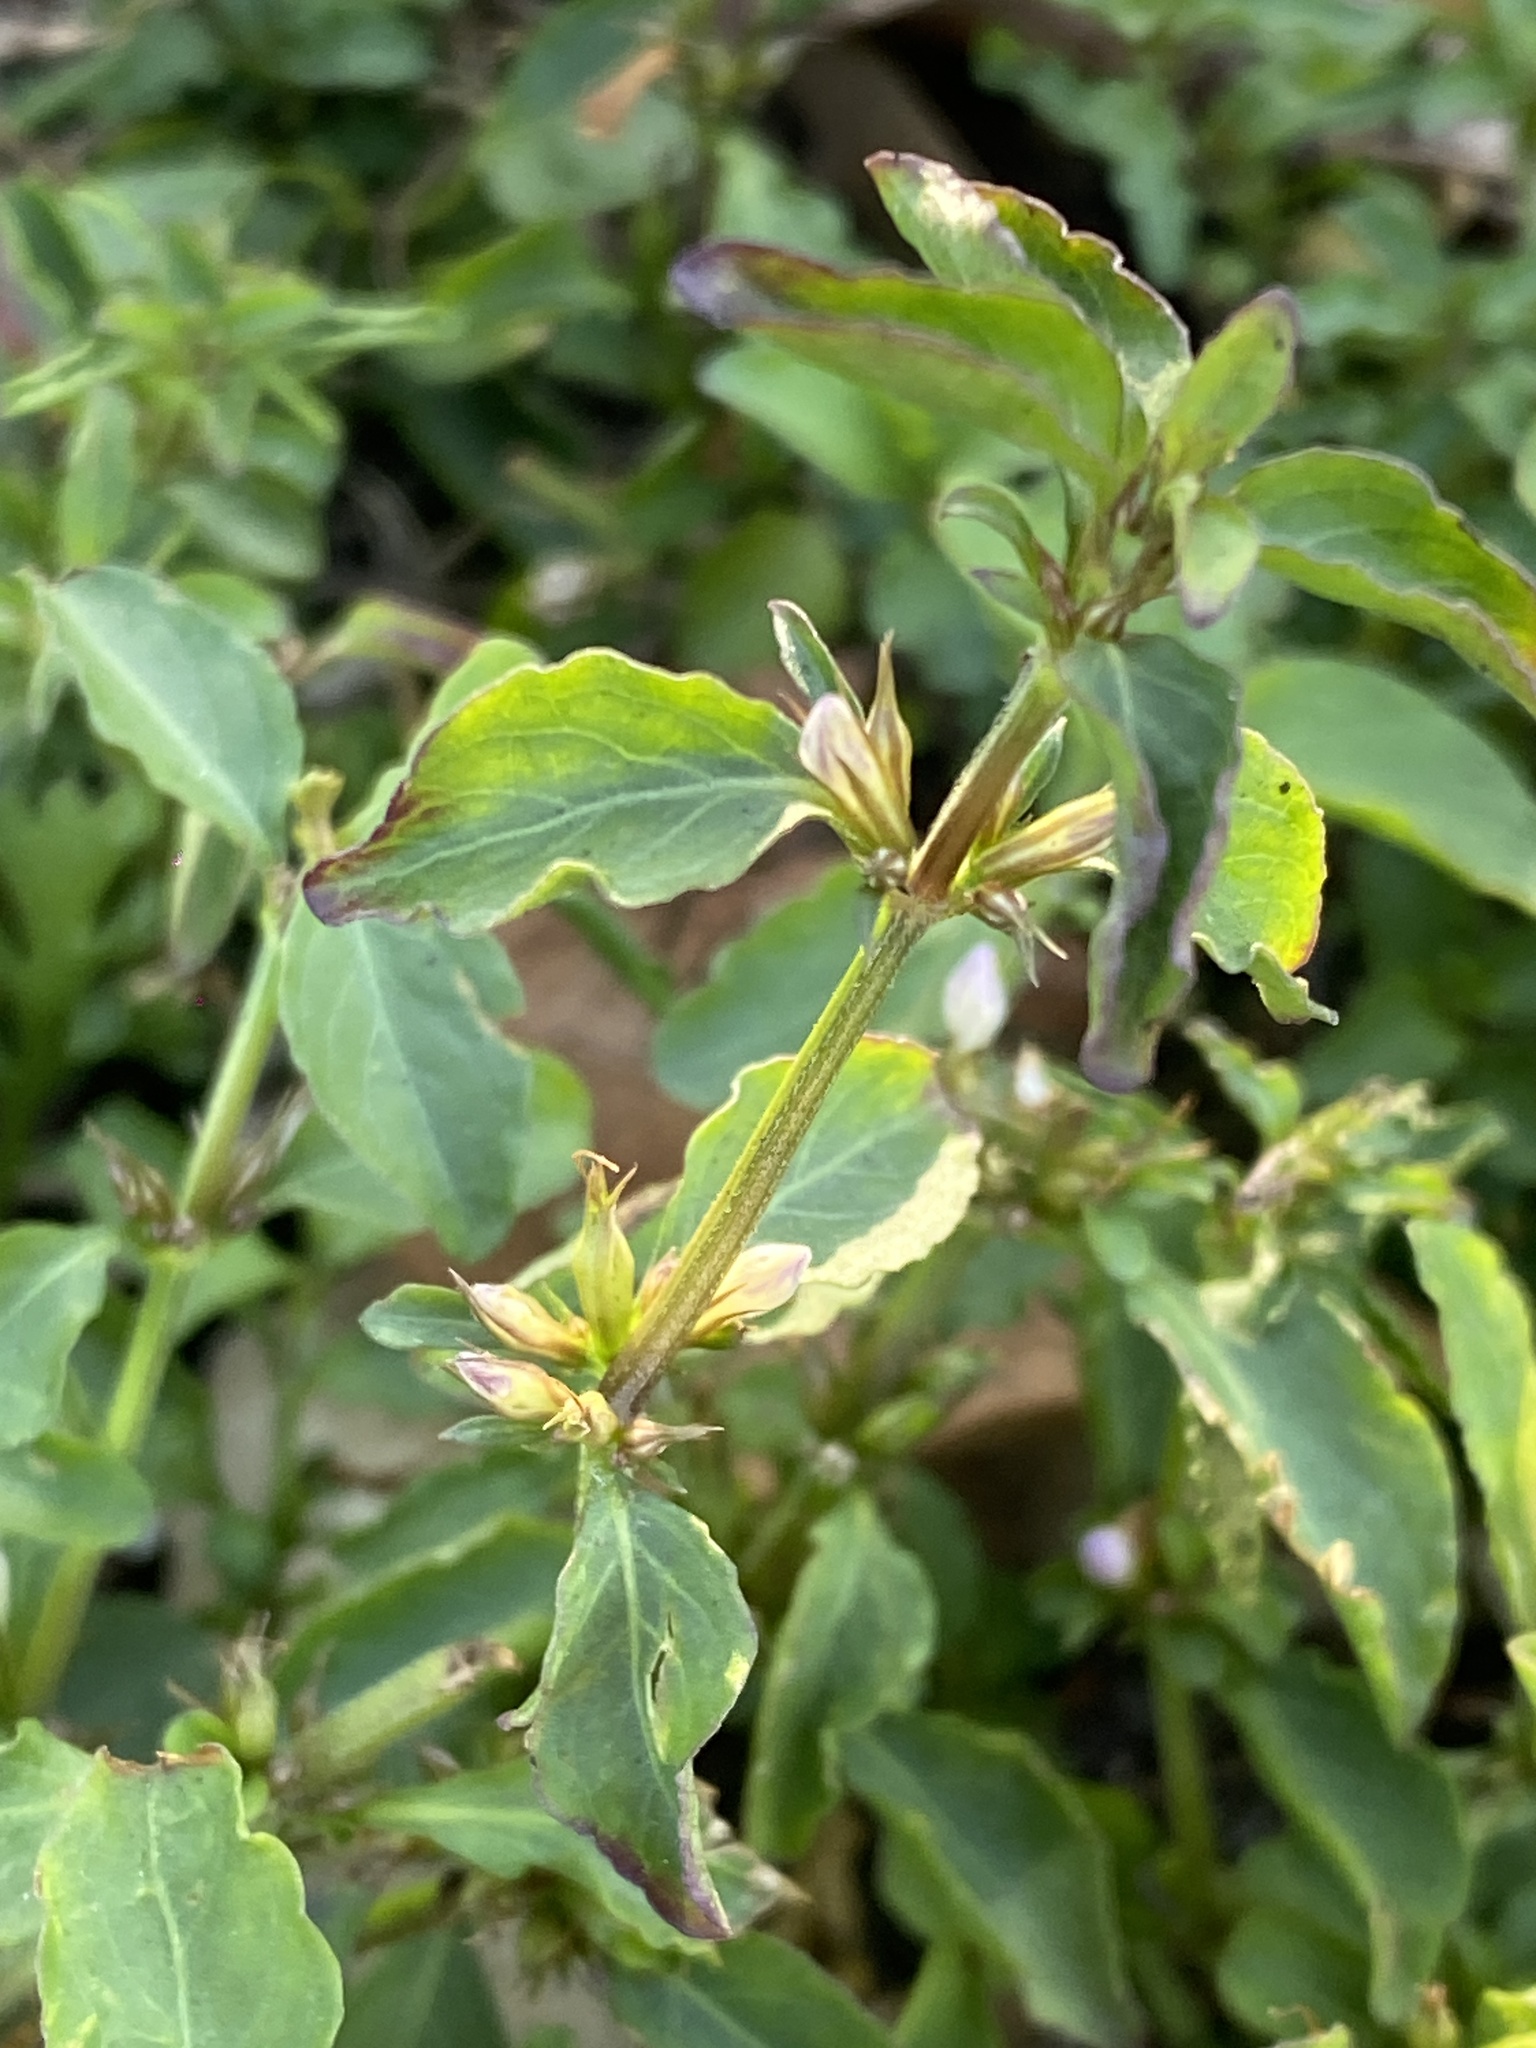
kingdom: Plantae
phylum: Tracheophyta
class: Magnoliopsida
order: Lamiales
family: Acanthaceae
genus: Hygrophila
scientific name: Hygrophila erecta
